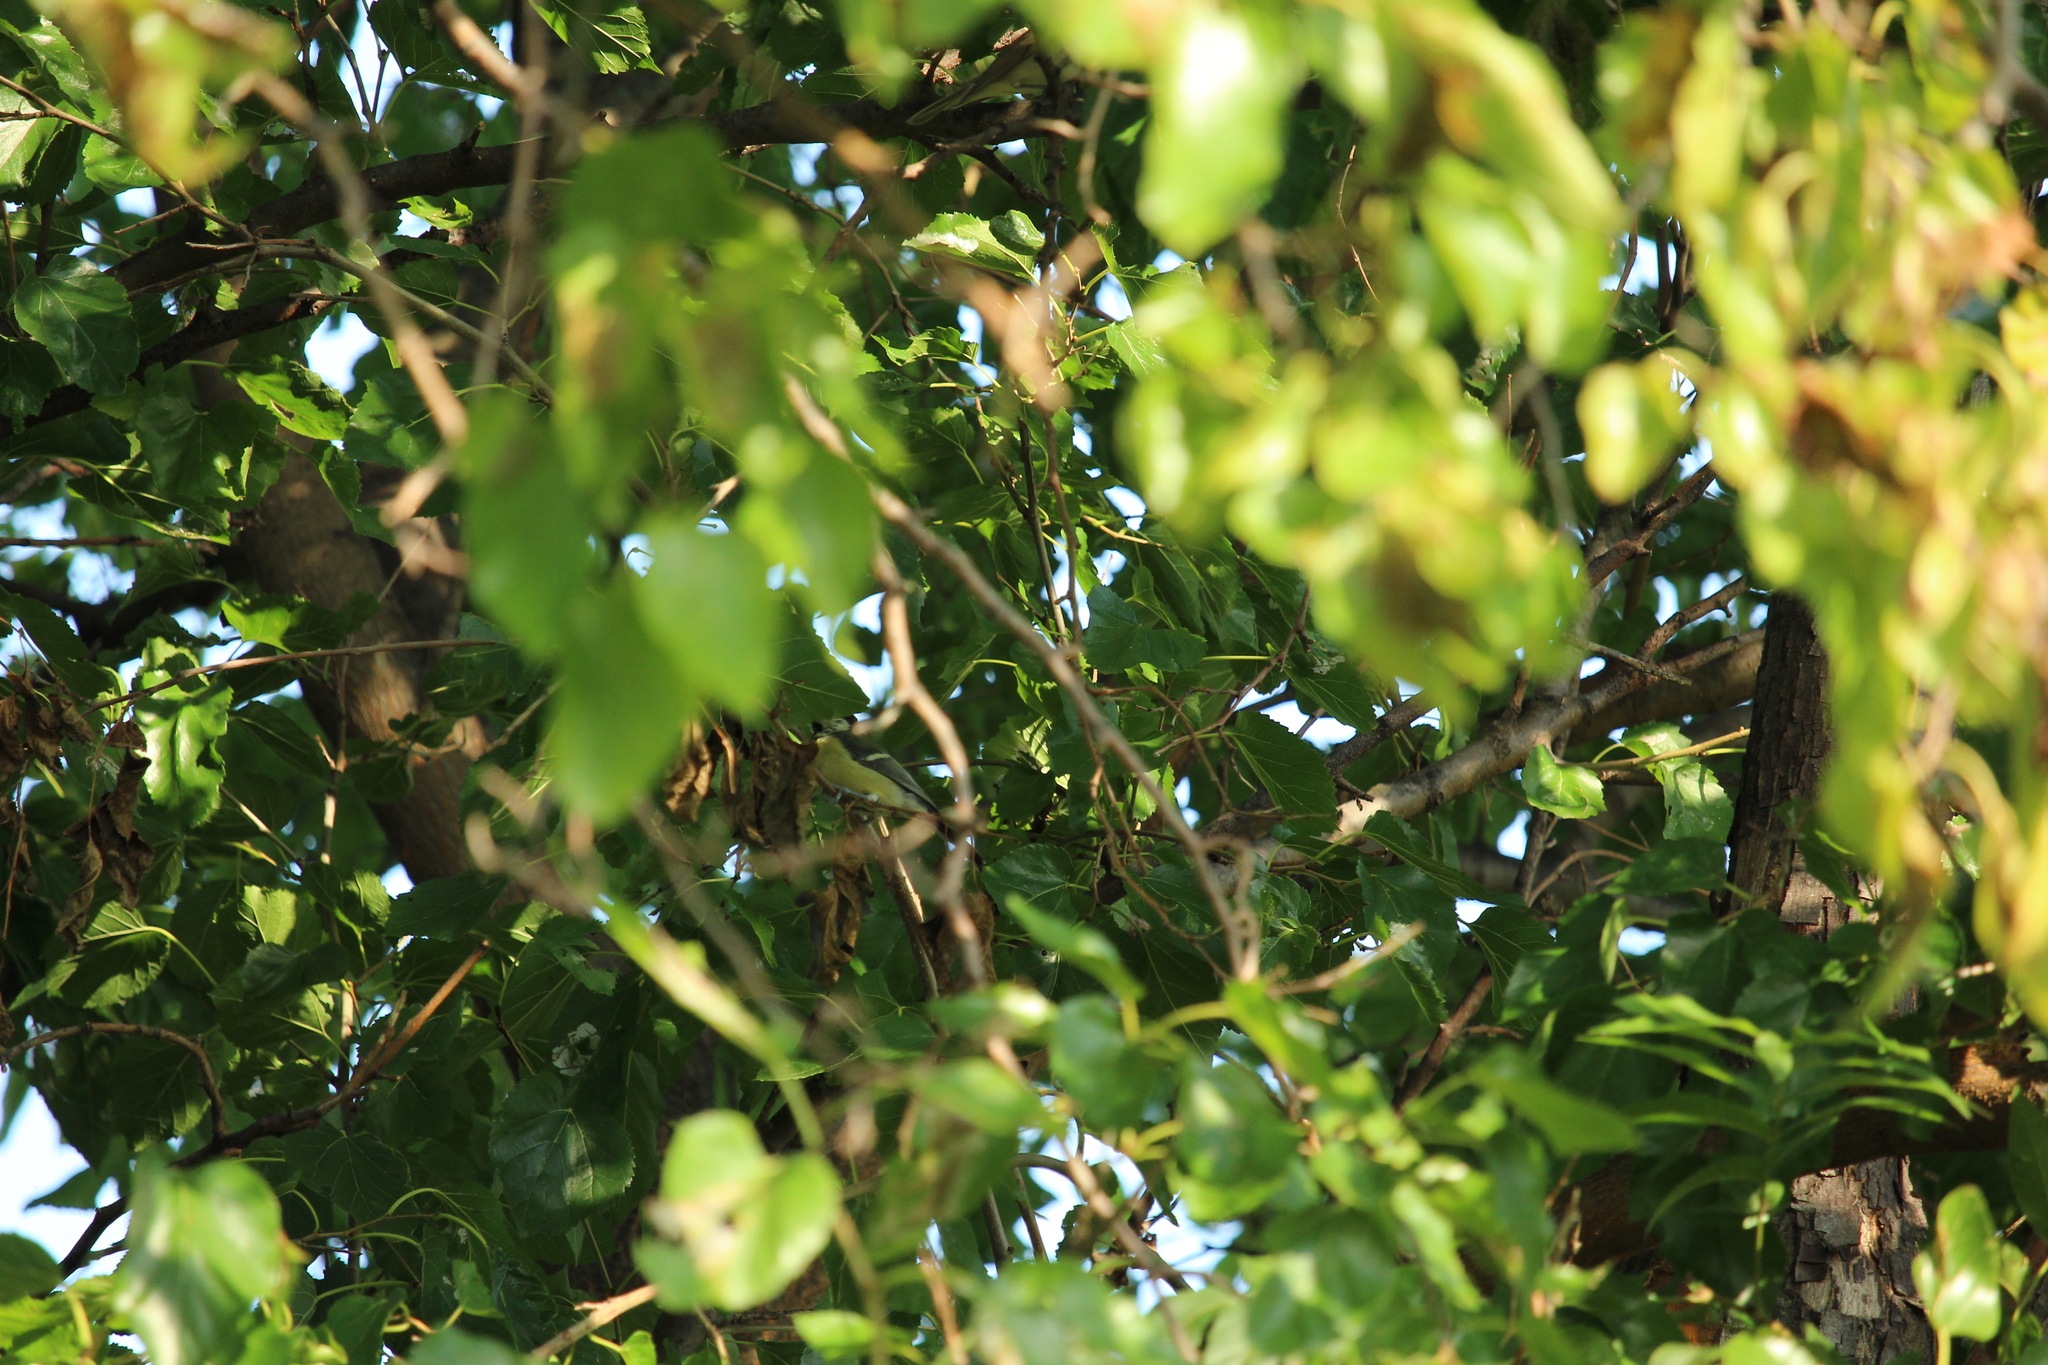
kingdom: Animalia
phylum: Chordata
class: Aves
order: Passeriformes
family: Paridae
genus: Parus
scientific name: Parus major
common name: Great tit
